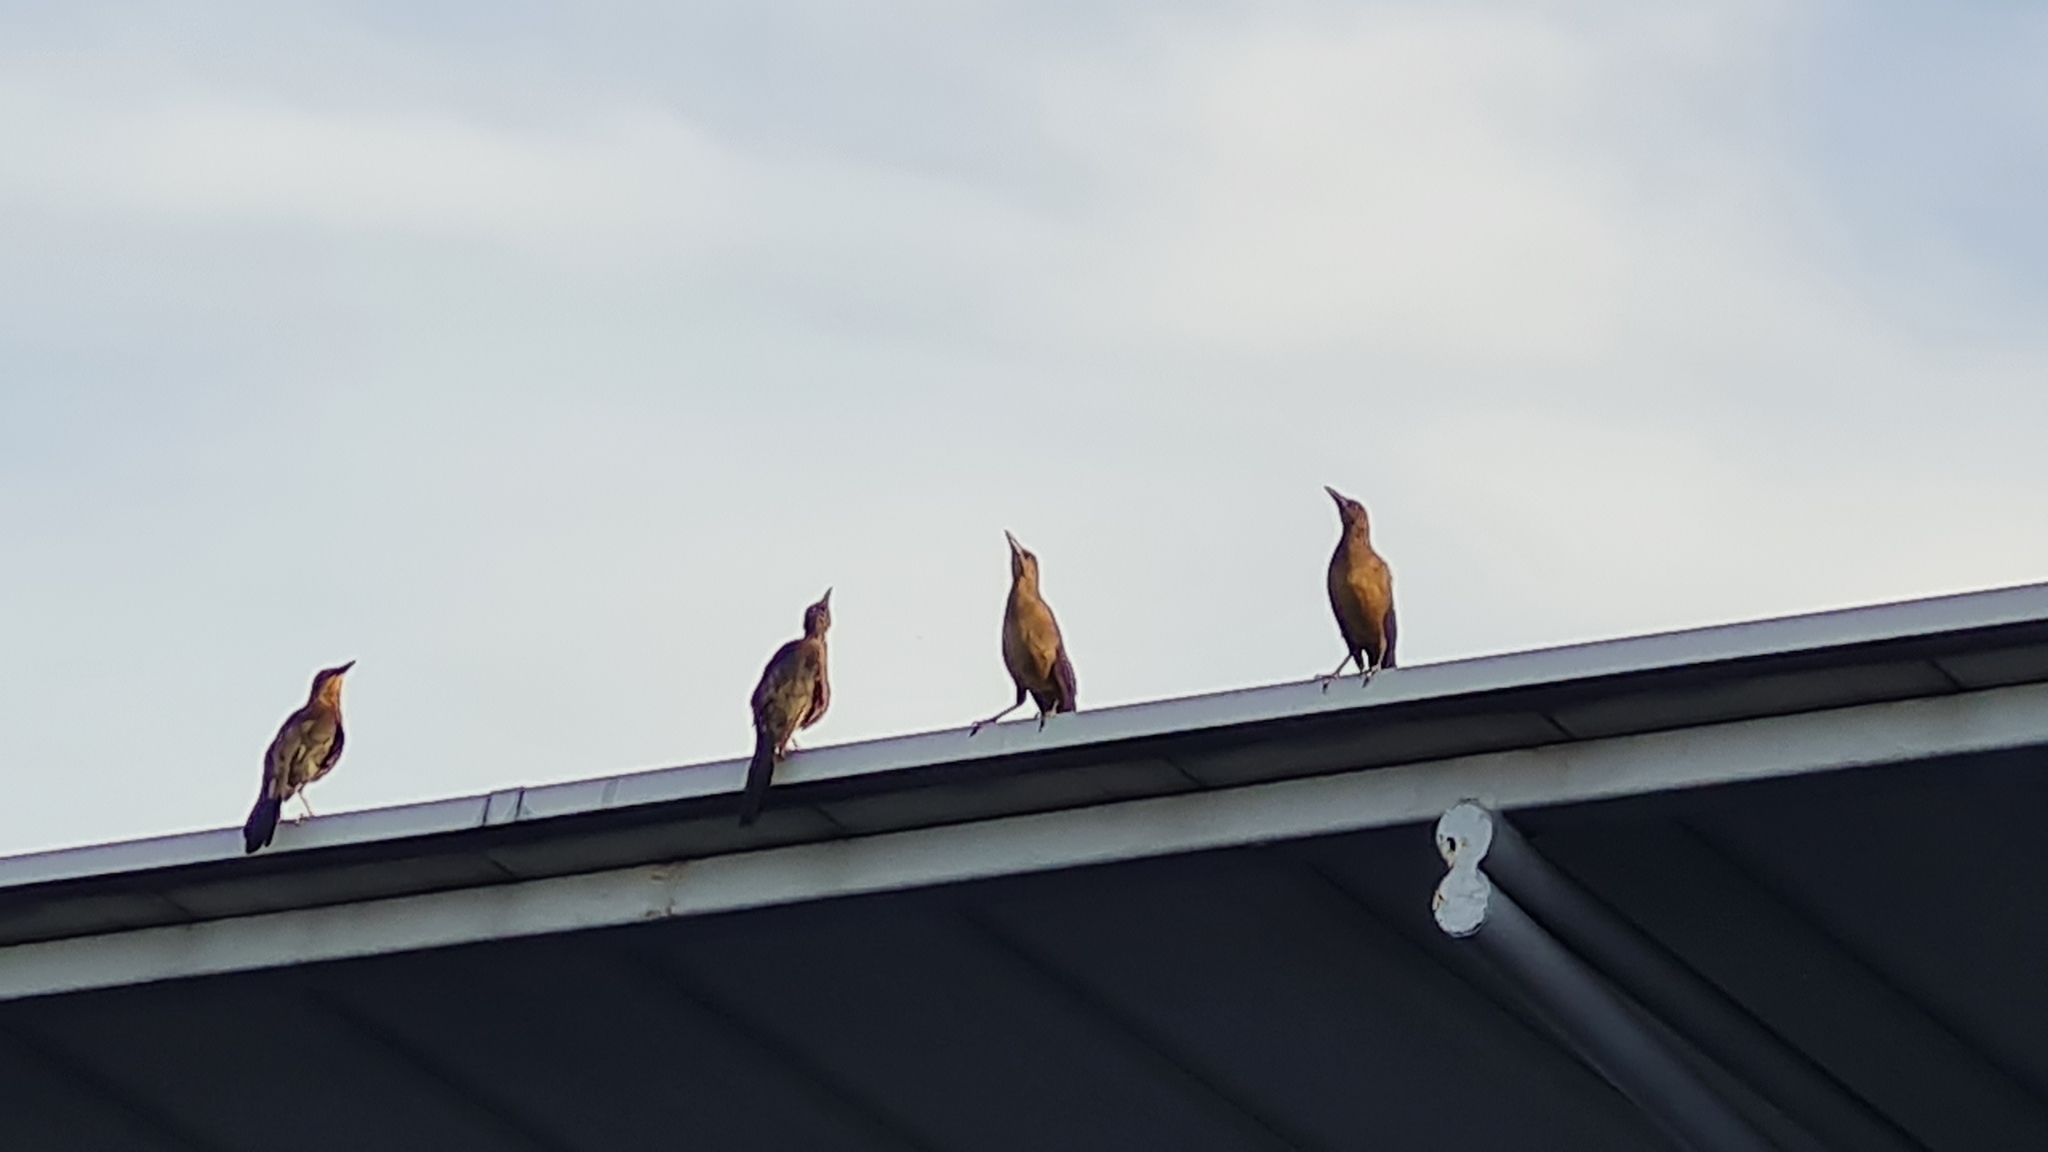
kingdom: Animalia
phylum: Chordata
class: Aves
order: Passeriformes
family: Icteridae
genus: Quiscalus
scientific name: Quiscalus mexicanus
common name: Great-tailed grackle
